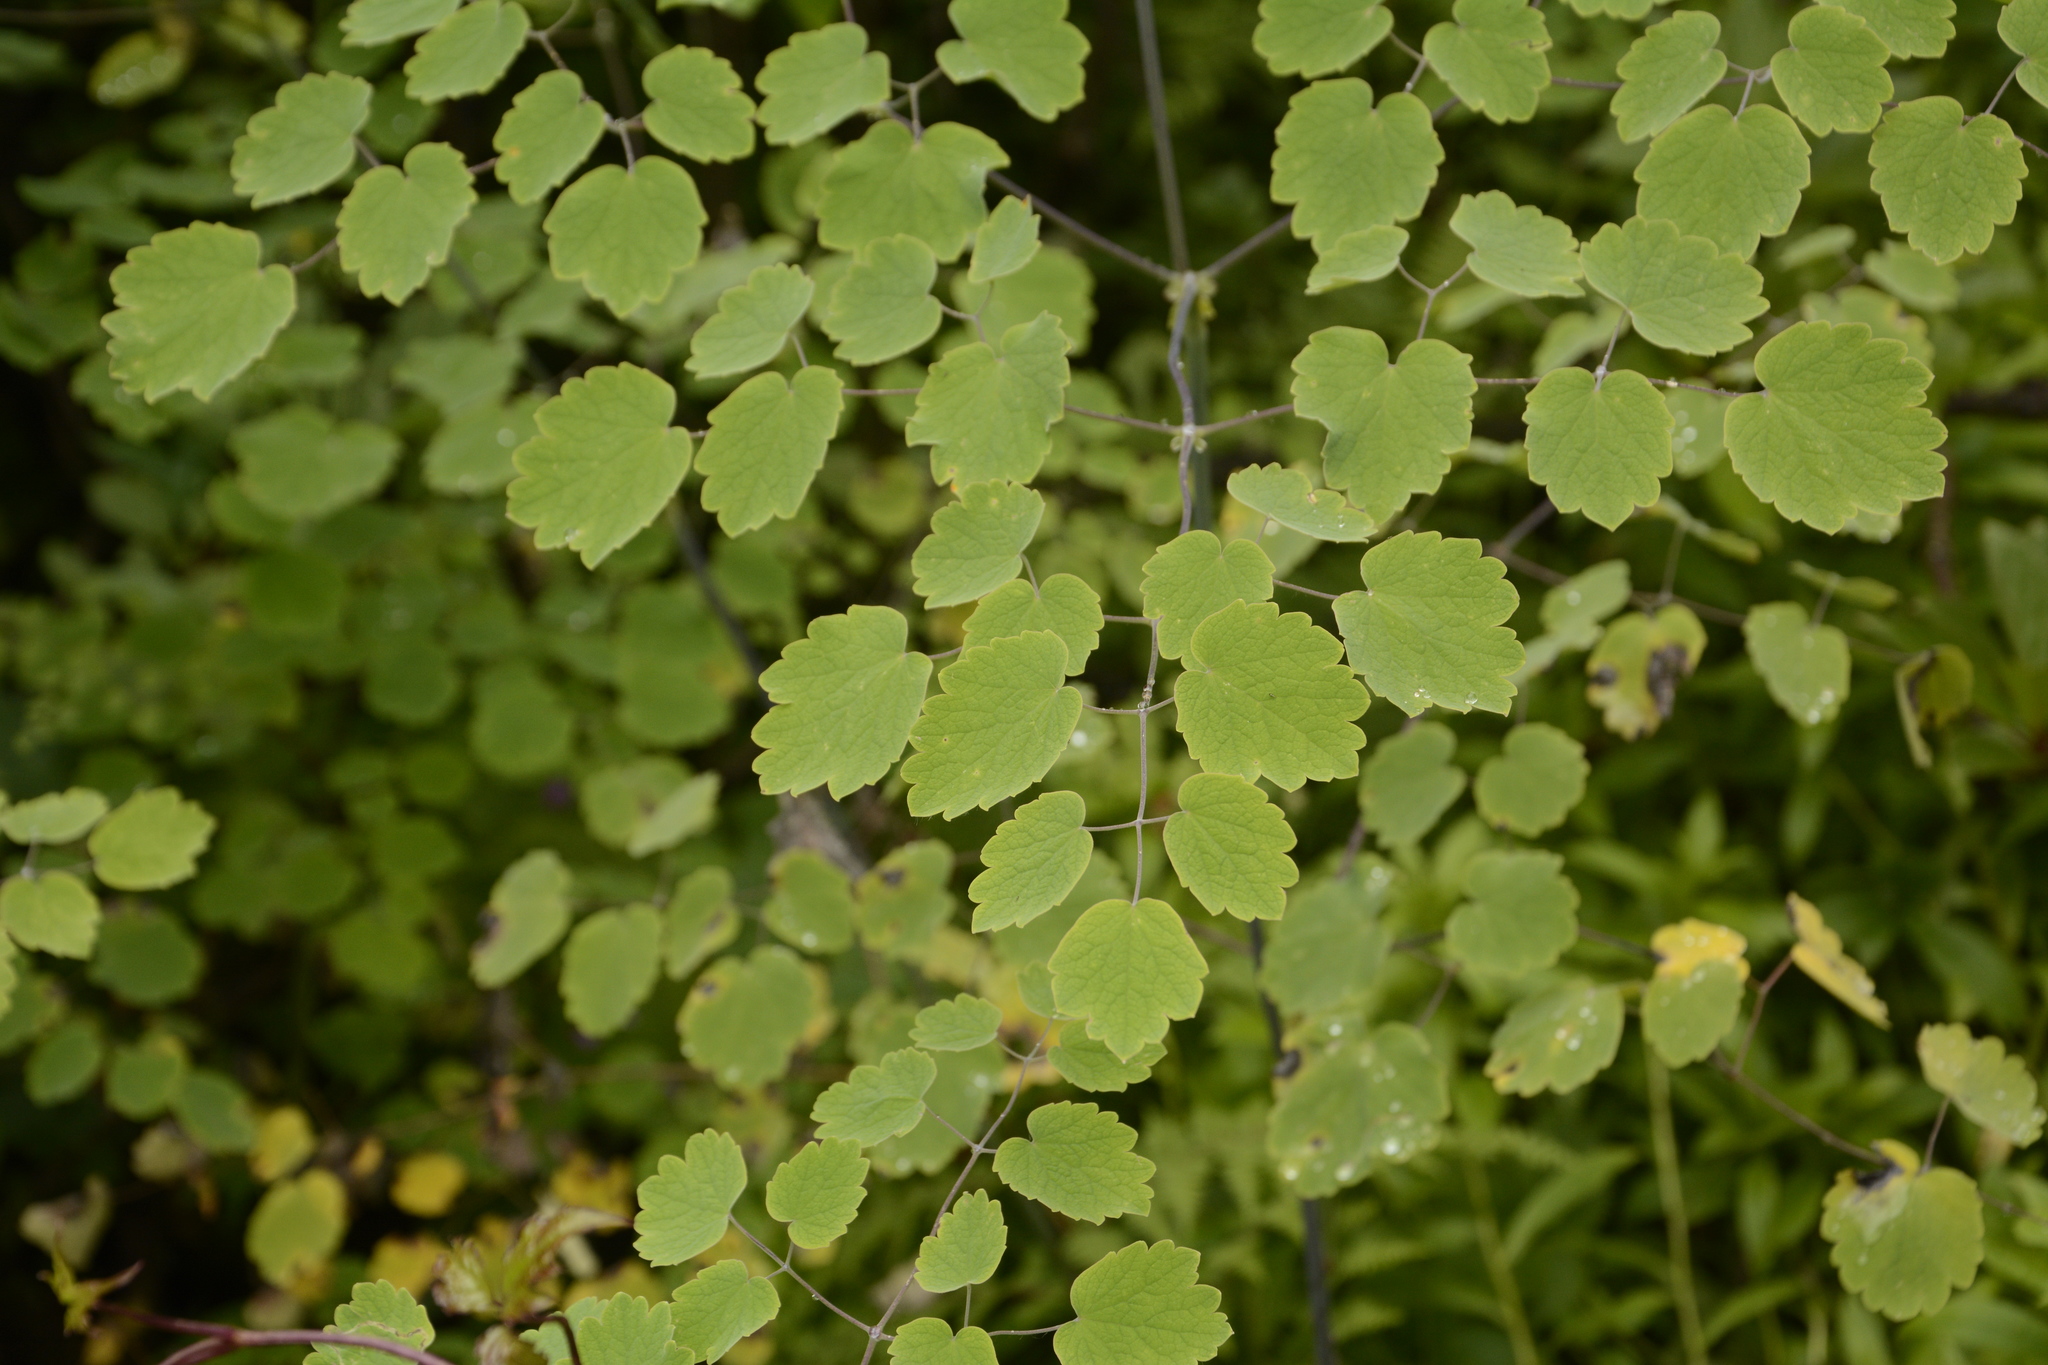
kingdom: Plantae
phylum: Tracheophyta
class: Magnoliopsida
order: Ranunculales
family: Ranunculaceae
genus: Thalictrum
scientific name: Thalictrum foliolosum
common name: Asian meadow-rue
